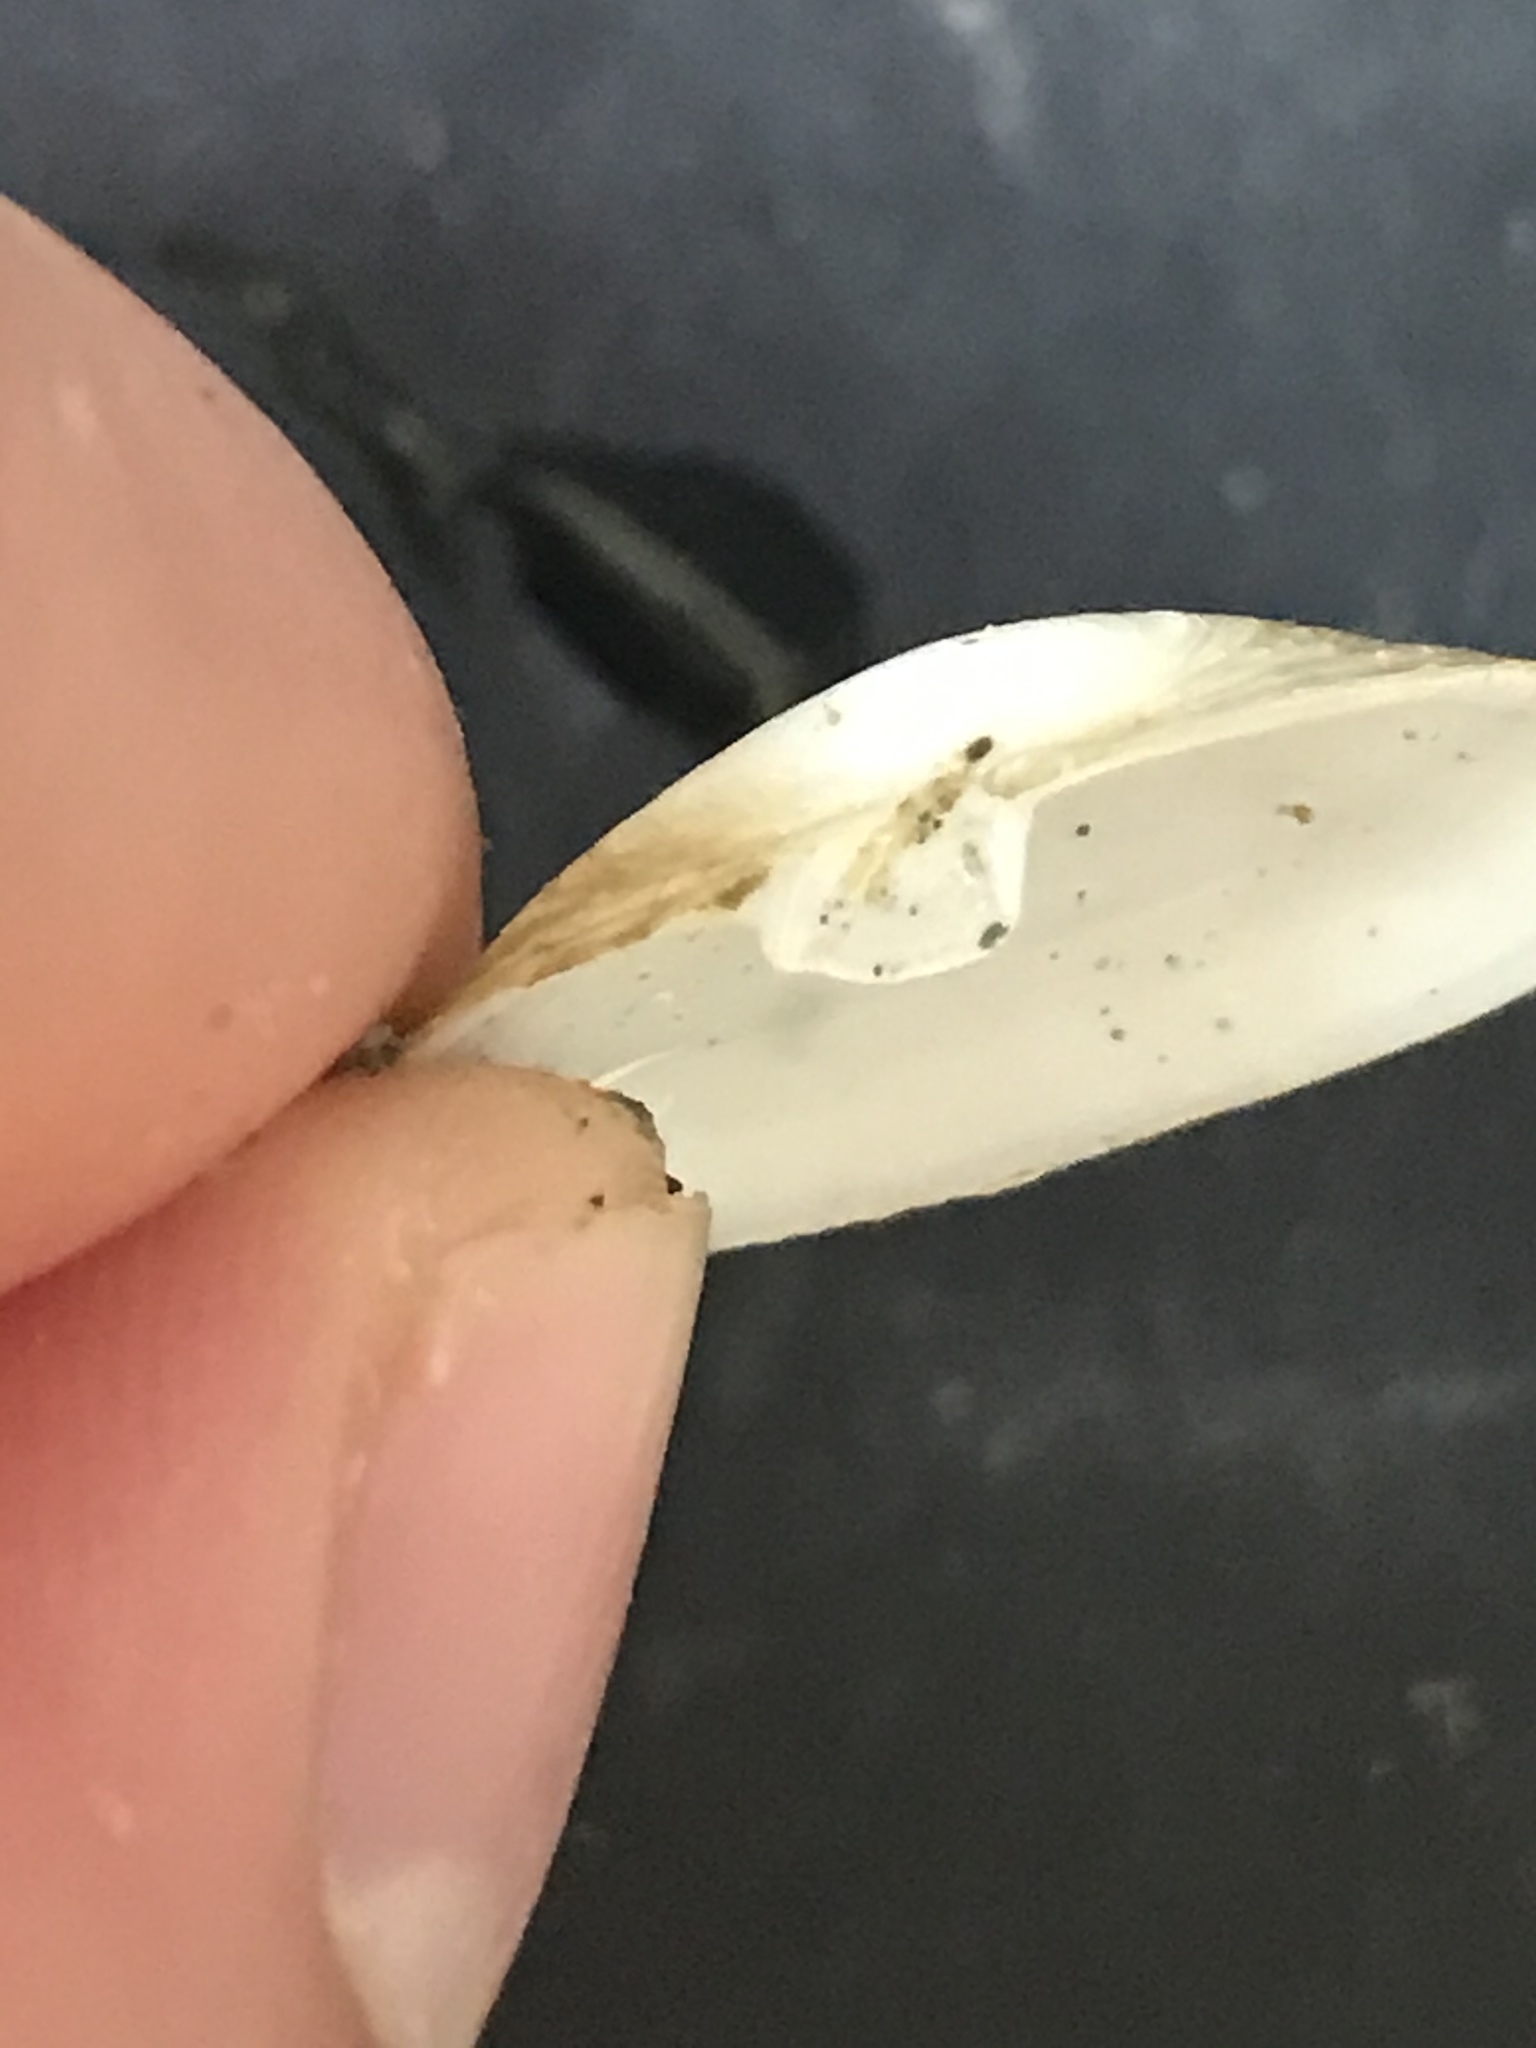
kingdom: Animalia
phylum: Mollusca
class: Bivalvia
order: Myida
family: Myidae
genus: Mya
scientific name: Mya arenaria
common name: Soft-shelled clam
